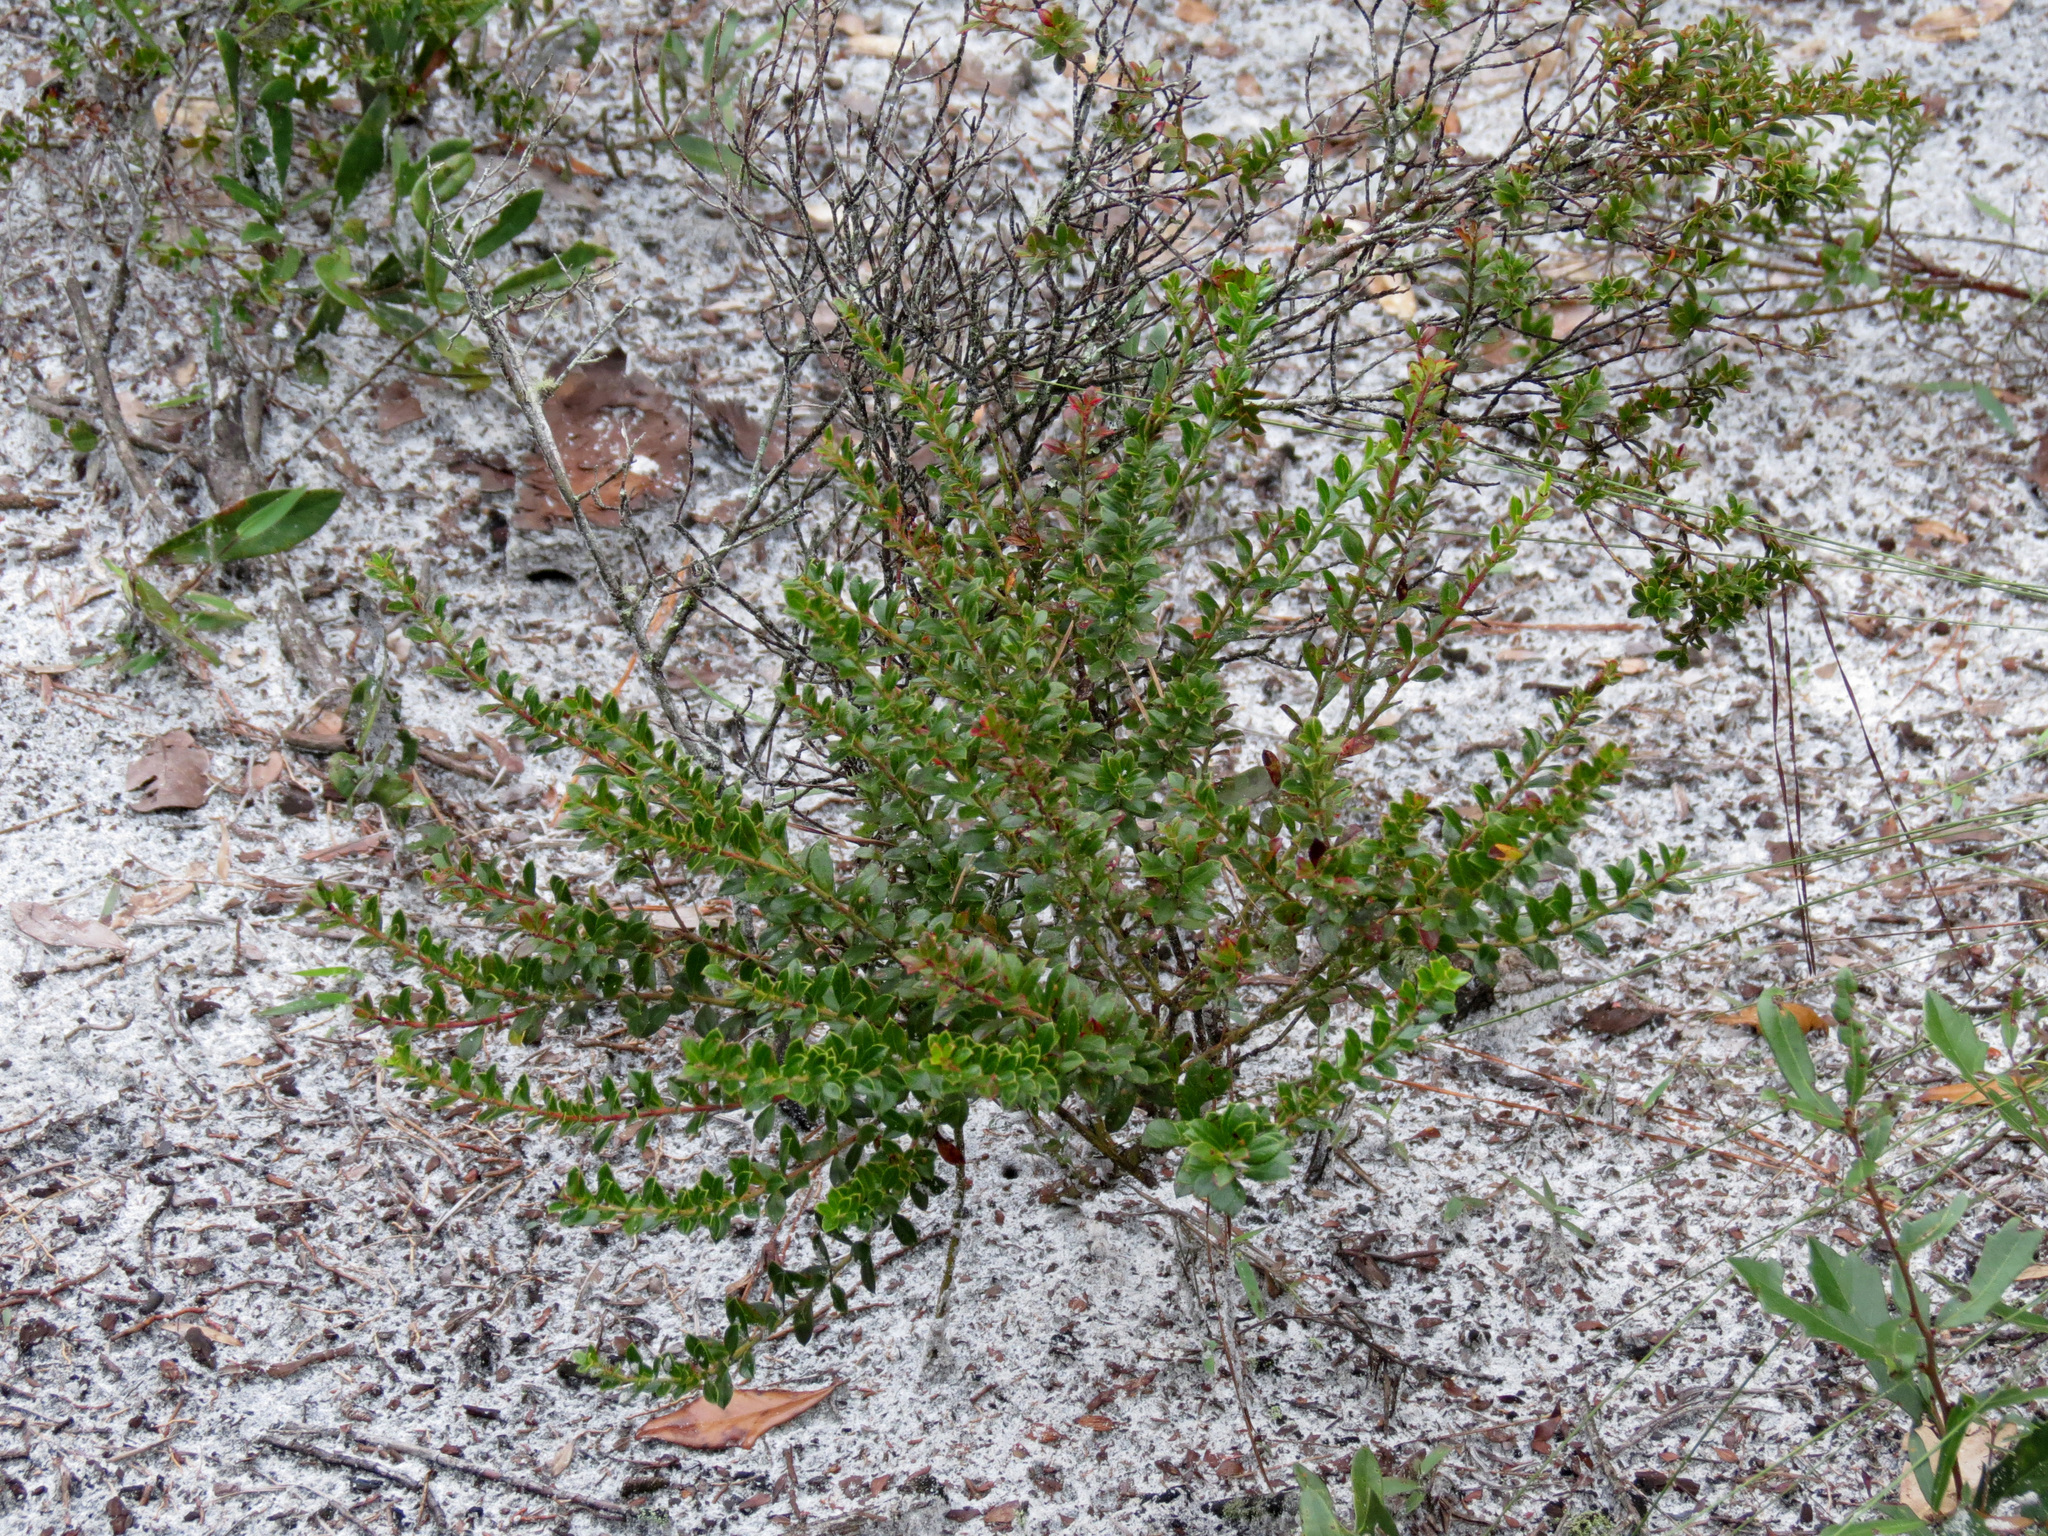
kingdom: Plantae
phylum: Tracheophyta
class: Magnoliopsida
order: Ericales
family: Ericaceae
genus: Vaccinium
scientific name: Vaccinium myrsinites
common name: Evergreen blueberry
